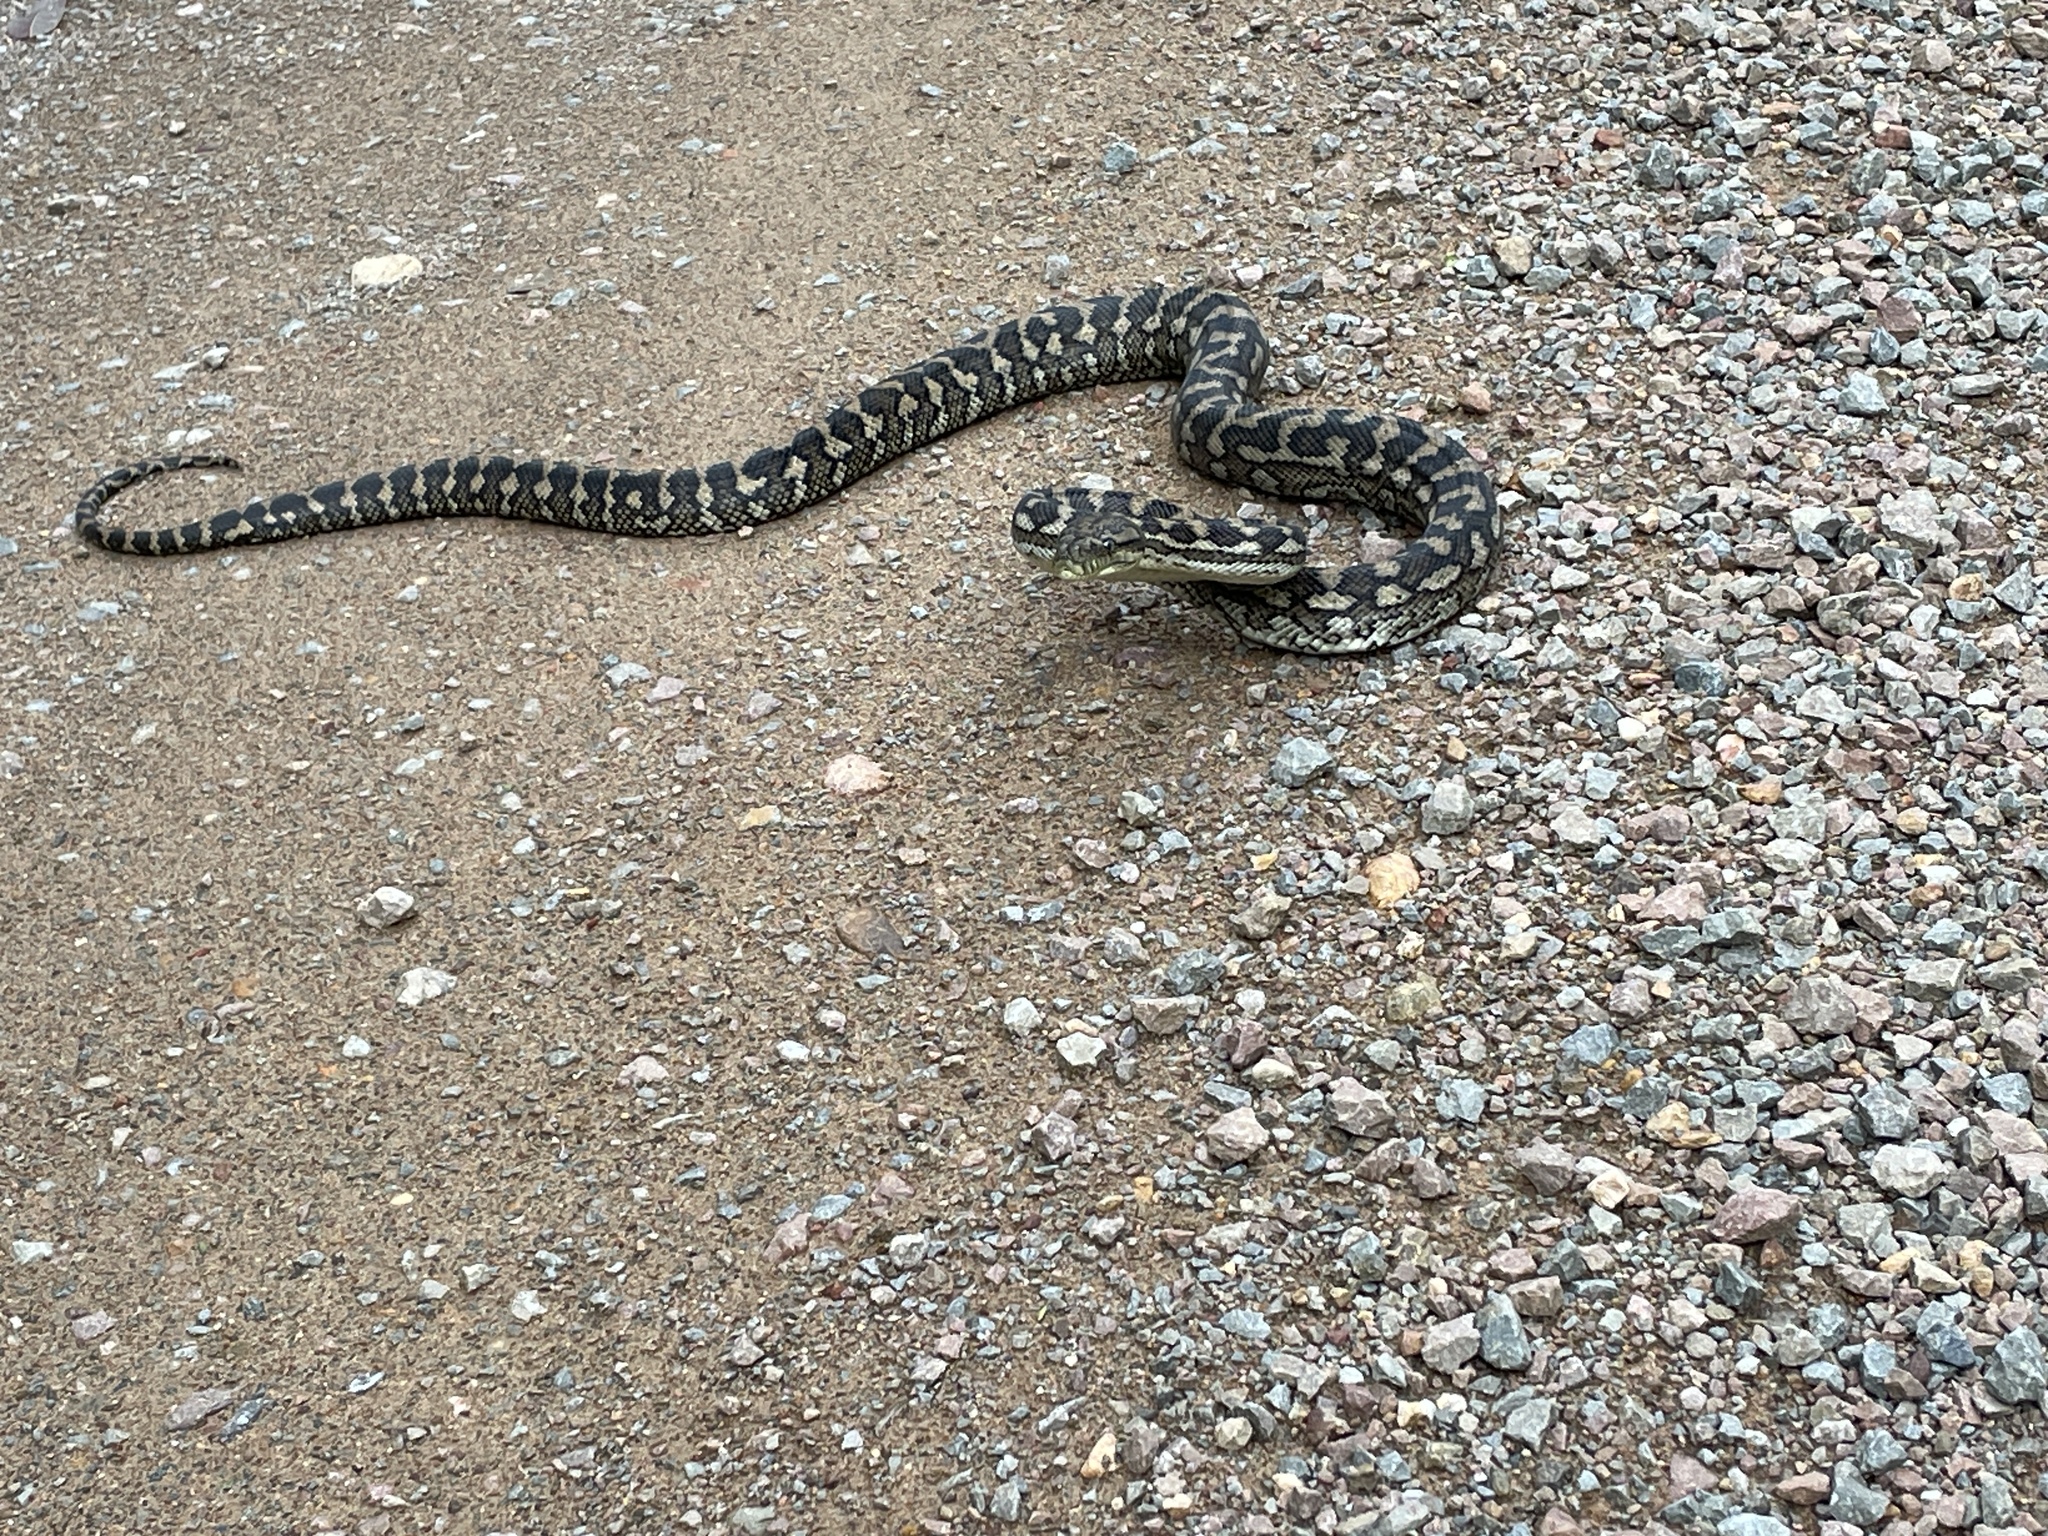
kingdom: Animalia
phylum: Chordata
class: Squamata
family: Pythonidae
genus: Morelia
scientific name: Morelia spilota
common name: Carpet python
